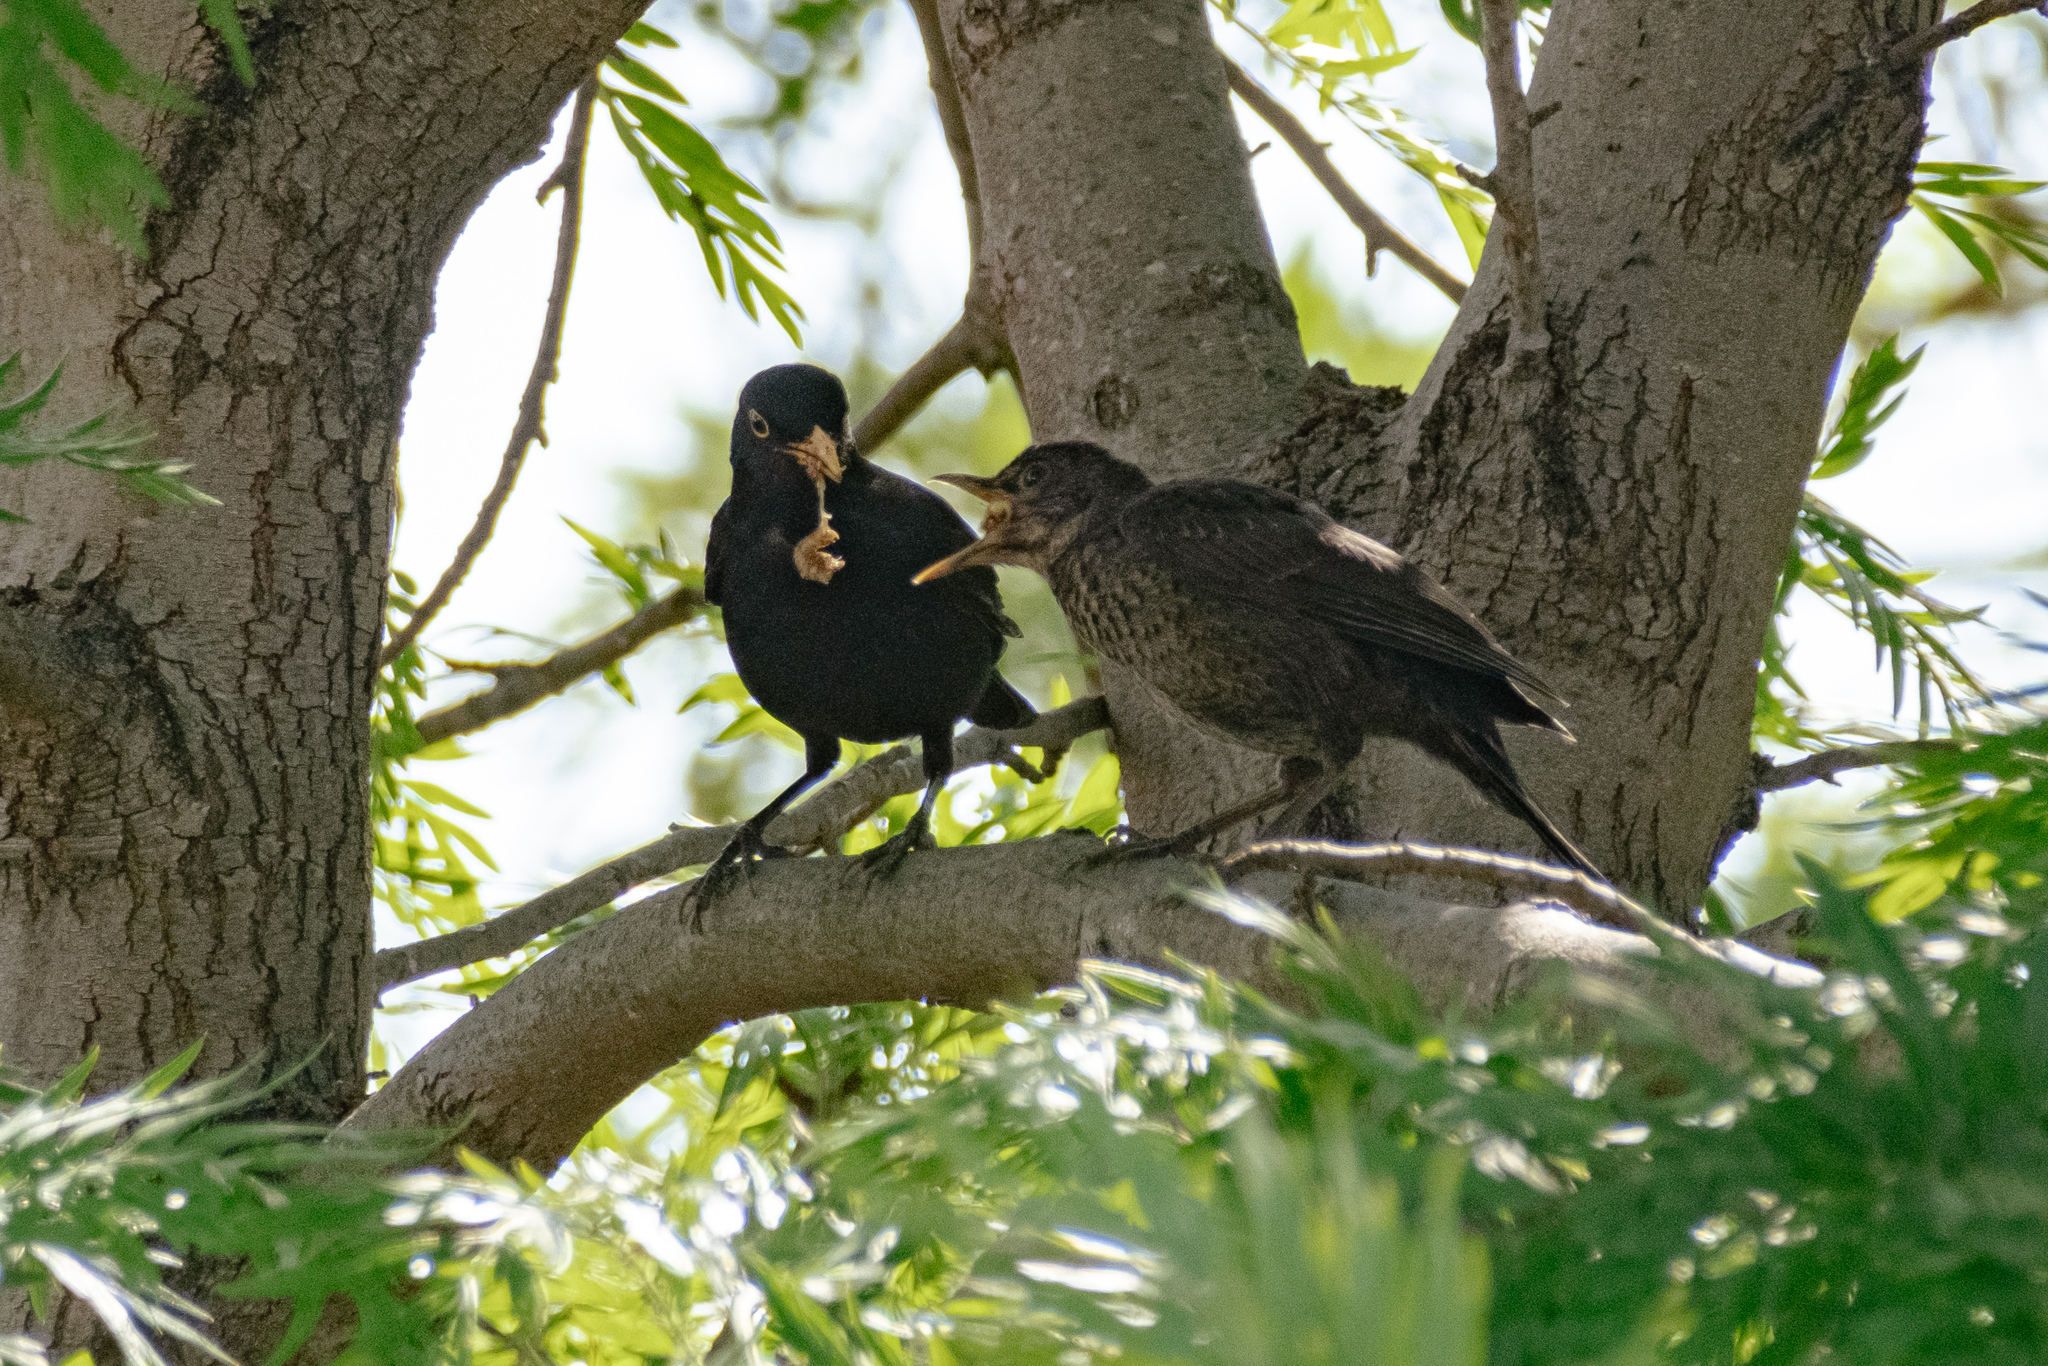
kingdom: Animalia
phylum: Chordata
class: Aves
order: Passeriformes
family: Turdidae
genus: Turdus
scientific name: Turdus merula
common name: Common blackbird
